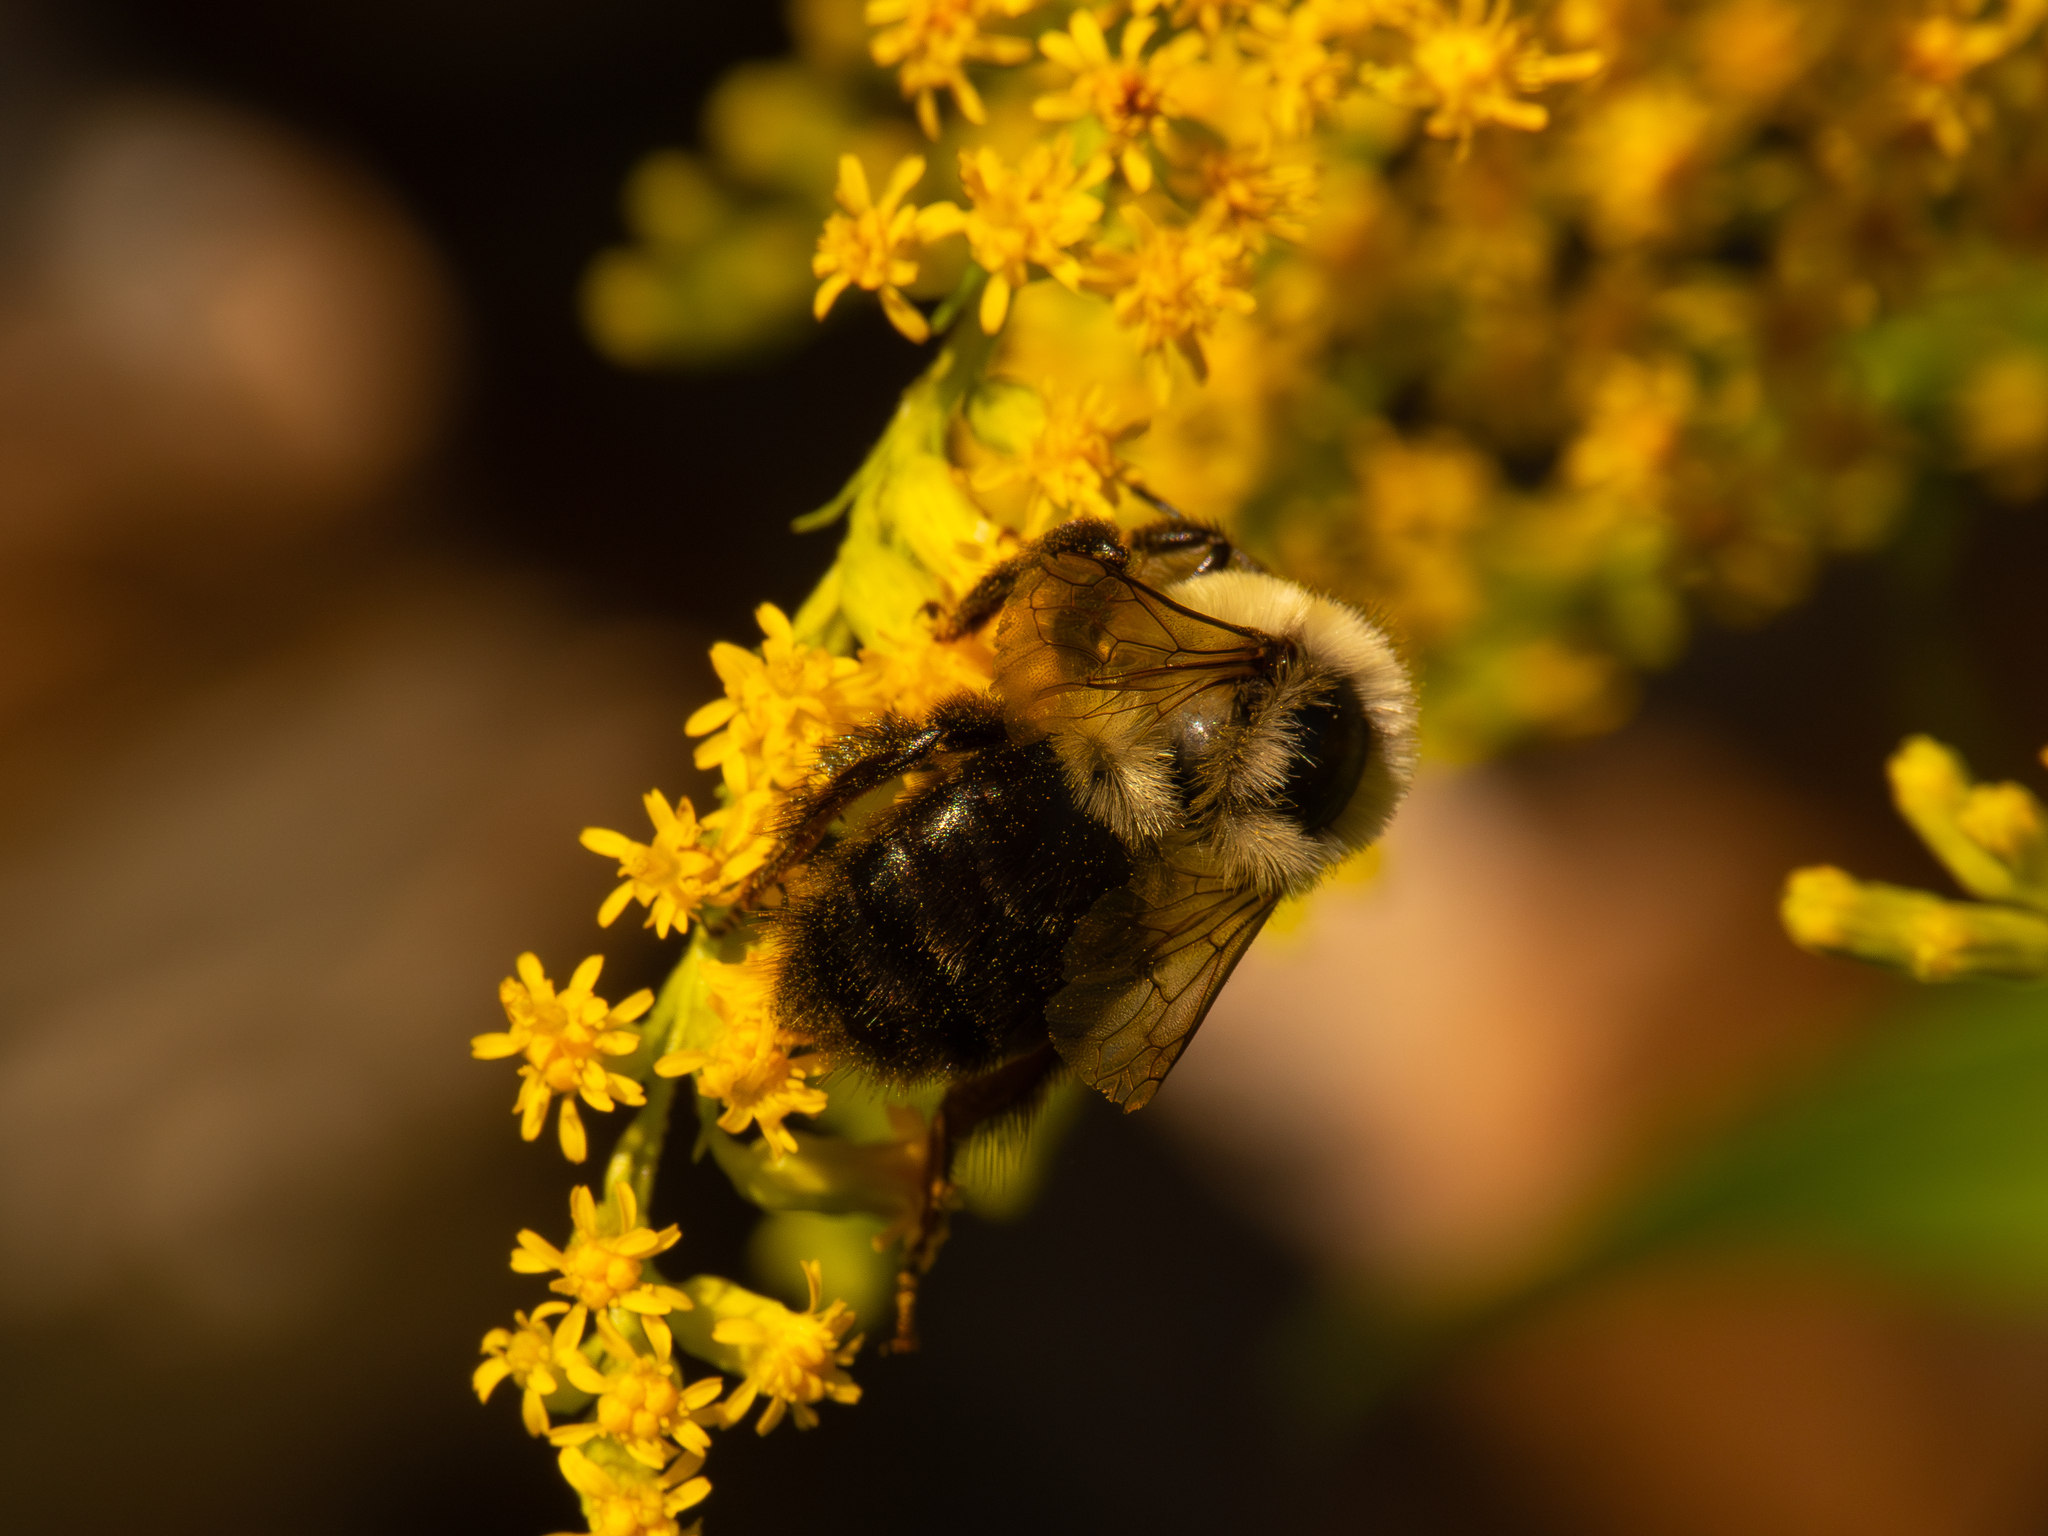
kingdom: Animalia
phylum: Arthropoda
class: Insecta
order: Hymenoptera
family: Apidae
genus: Bombus
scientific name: Bombus impatiens
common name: Common eastern bumble bee
